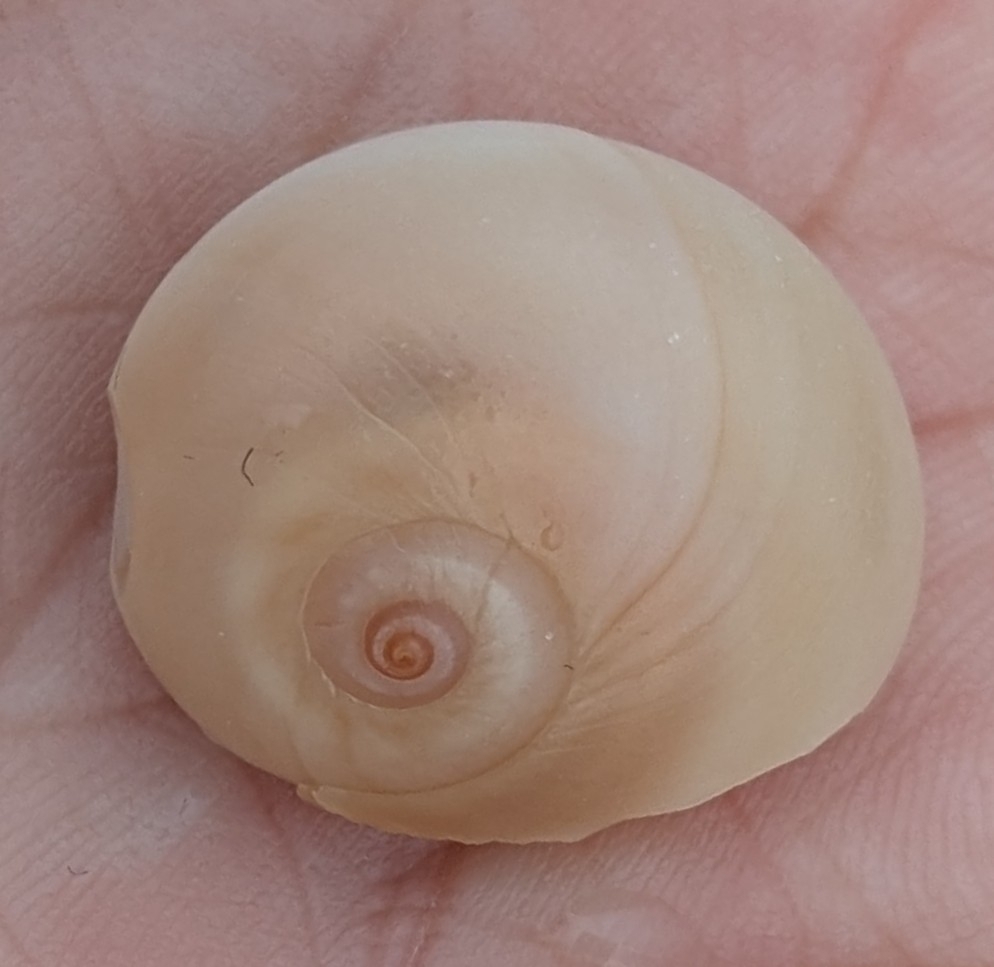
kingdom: Animalia
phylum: Mollusca
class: Gastropoda
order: Littorinimorpha
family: Naticidae
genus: Neverita
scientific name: Neverita delessertiana
